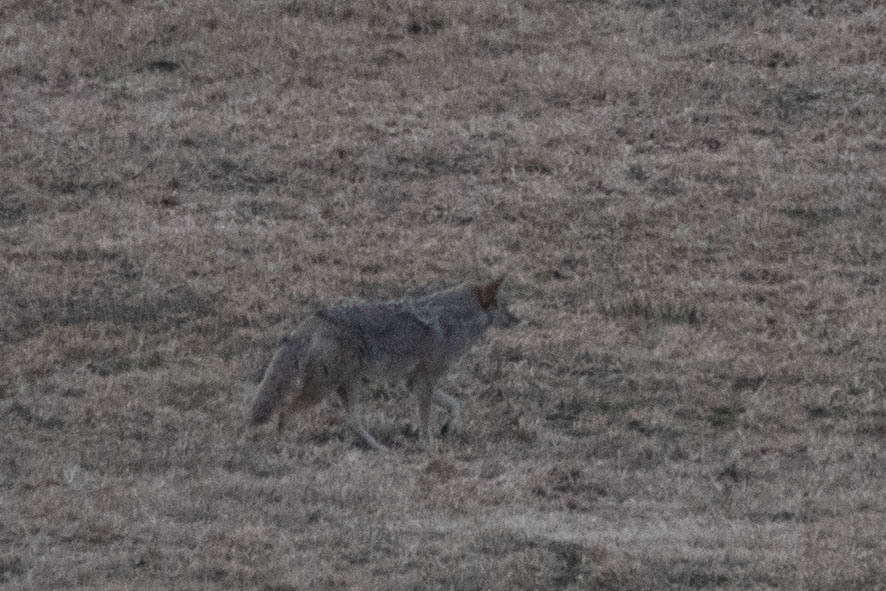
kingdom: Animalia
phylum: Chordata
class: Mammalia
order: Carnivora
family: Canidae
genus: Canis
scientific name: Canis latrans
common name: Coyote
